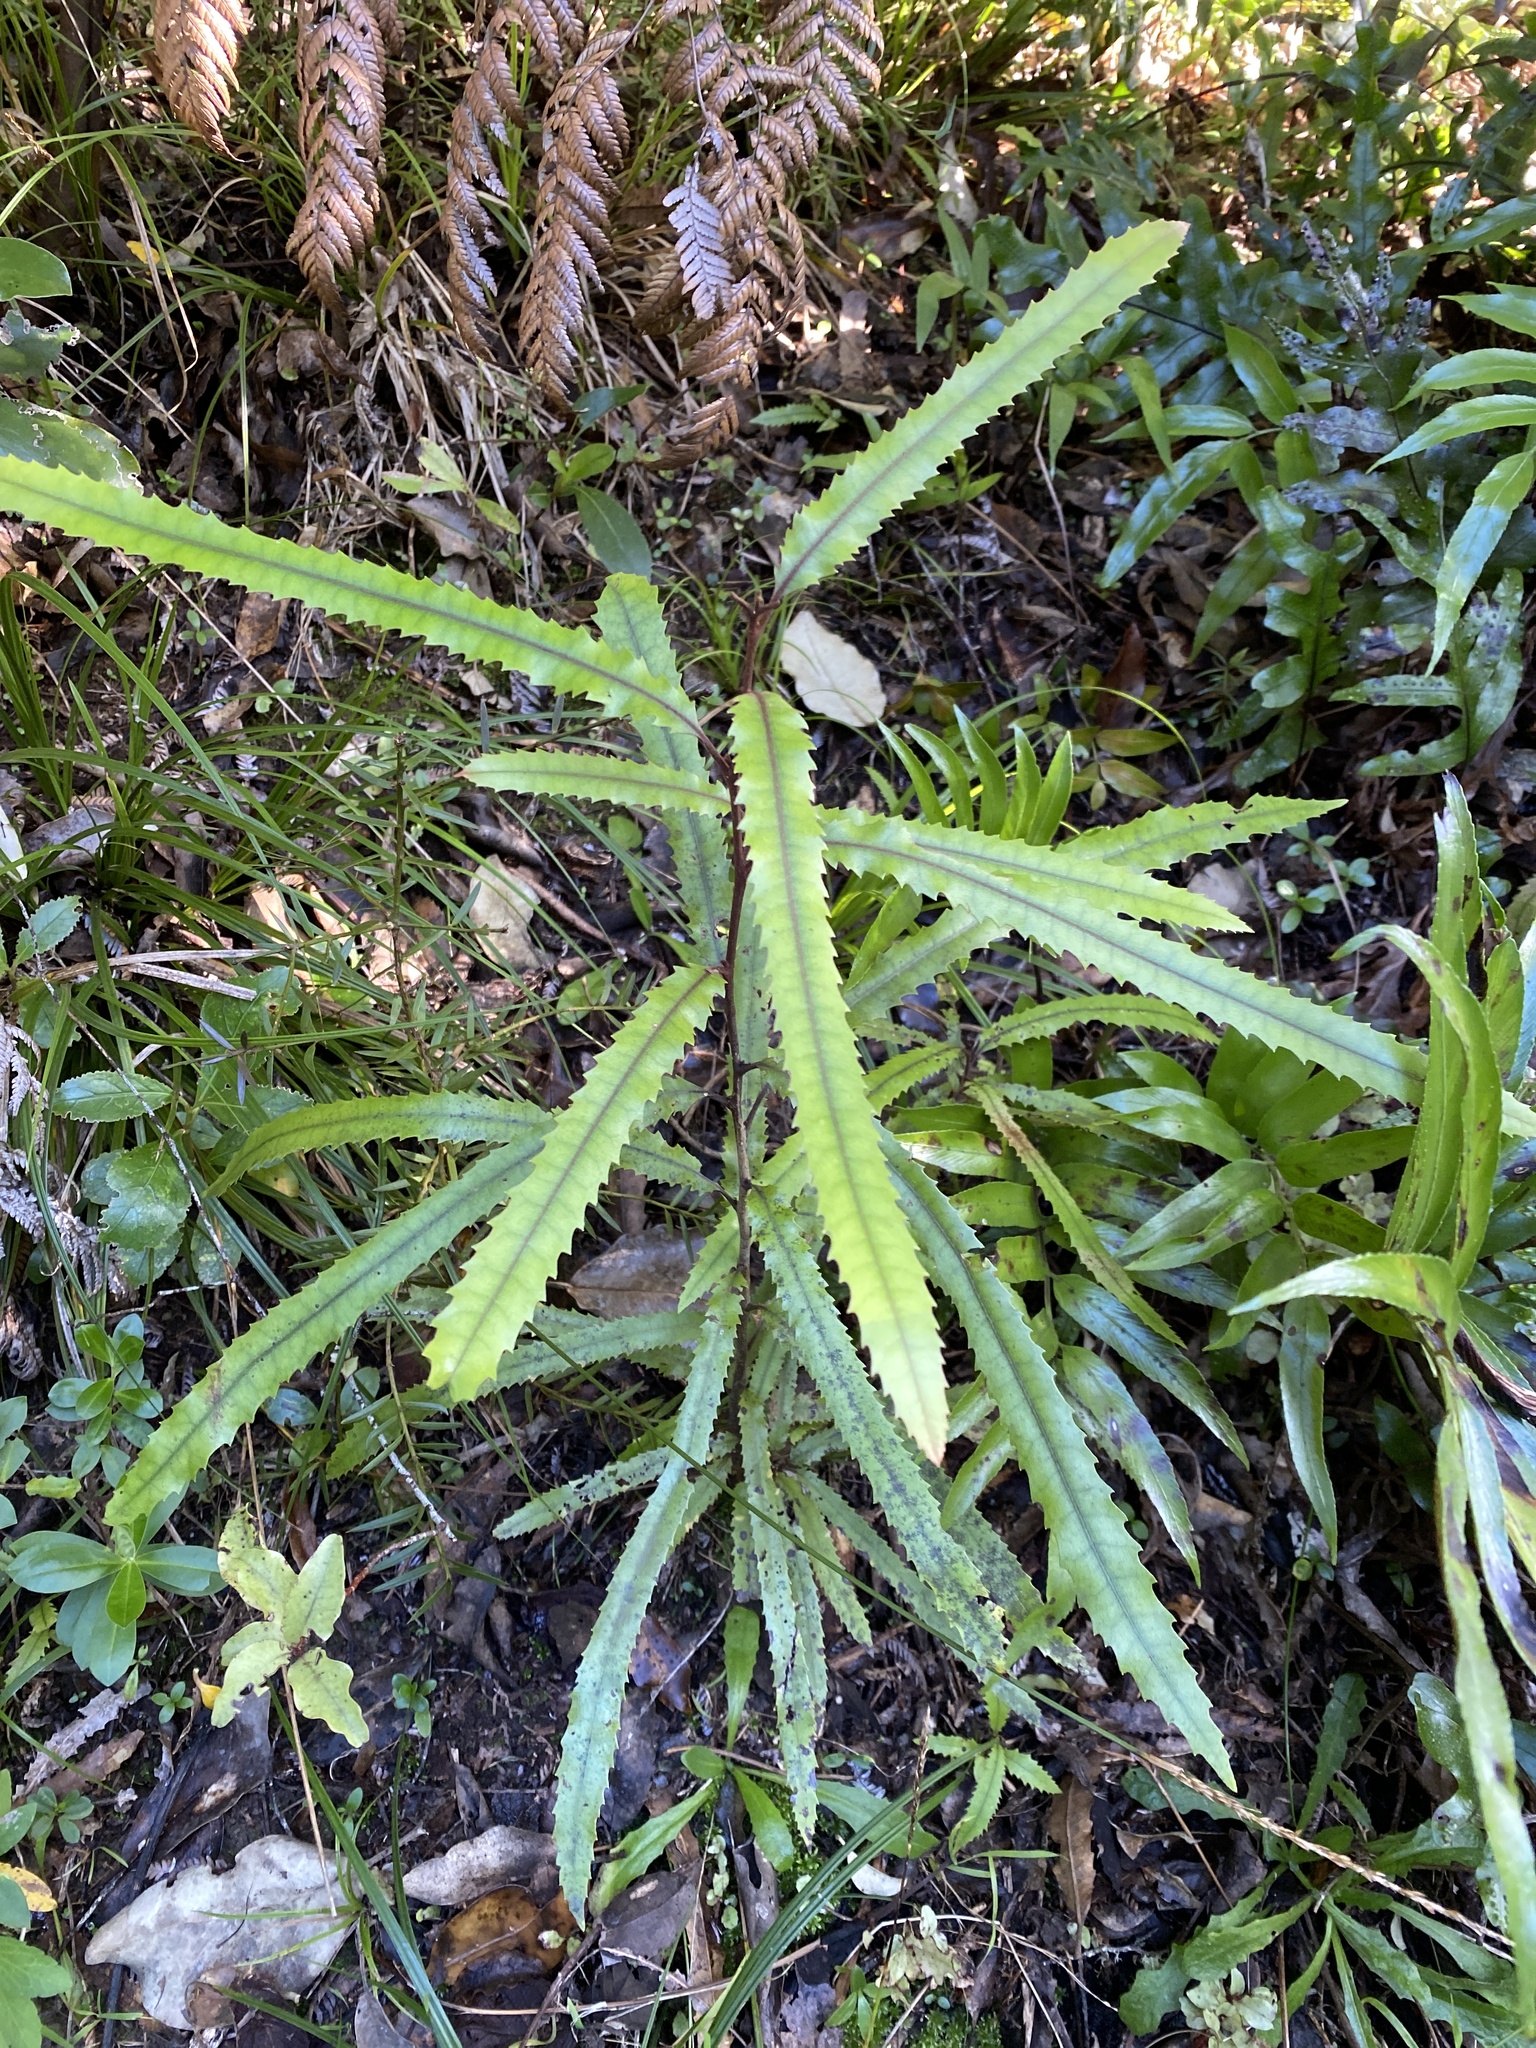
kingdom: Plantae
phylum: Tracheophyta
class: Magnoliopsida
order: Proteales
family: Proteaceae
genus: Knightia
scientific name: Knightia excelsa
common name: New zealand-honeysuckle
